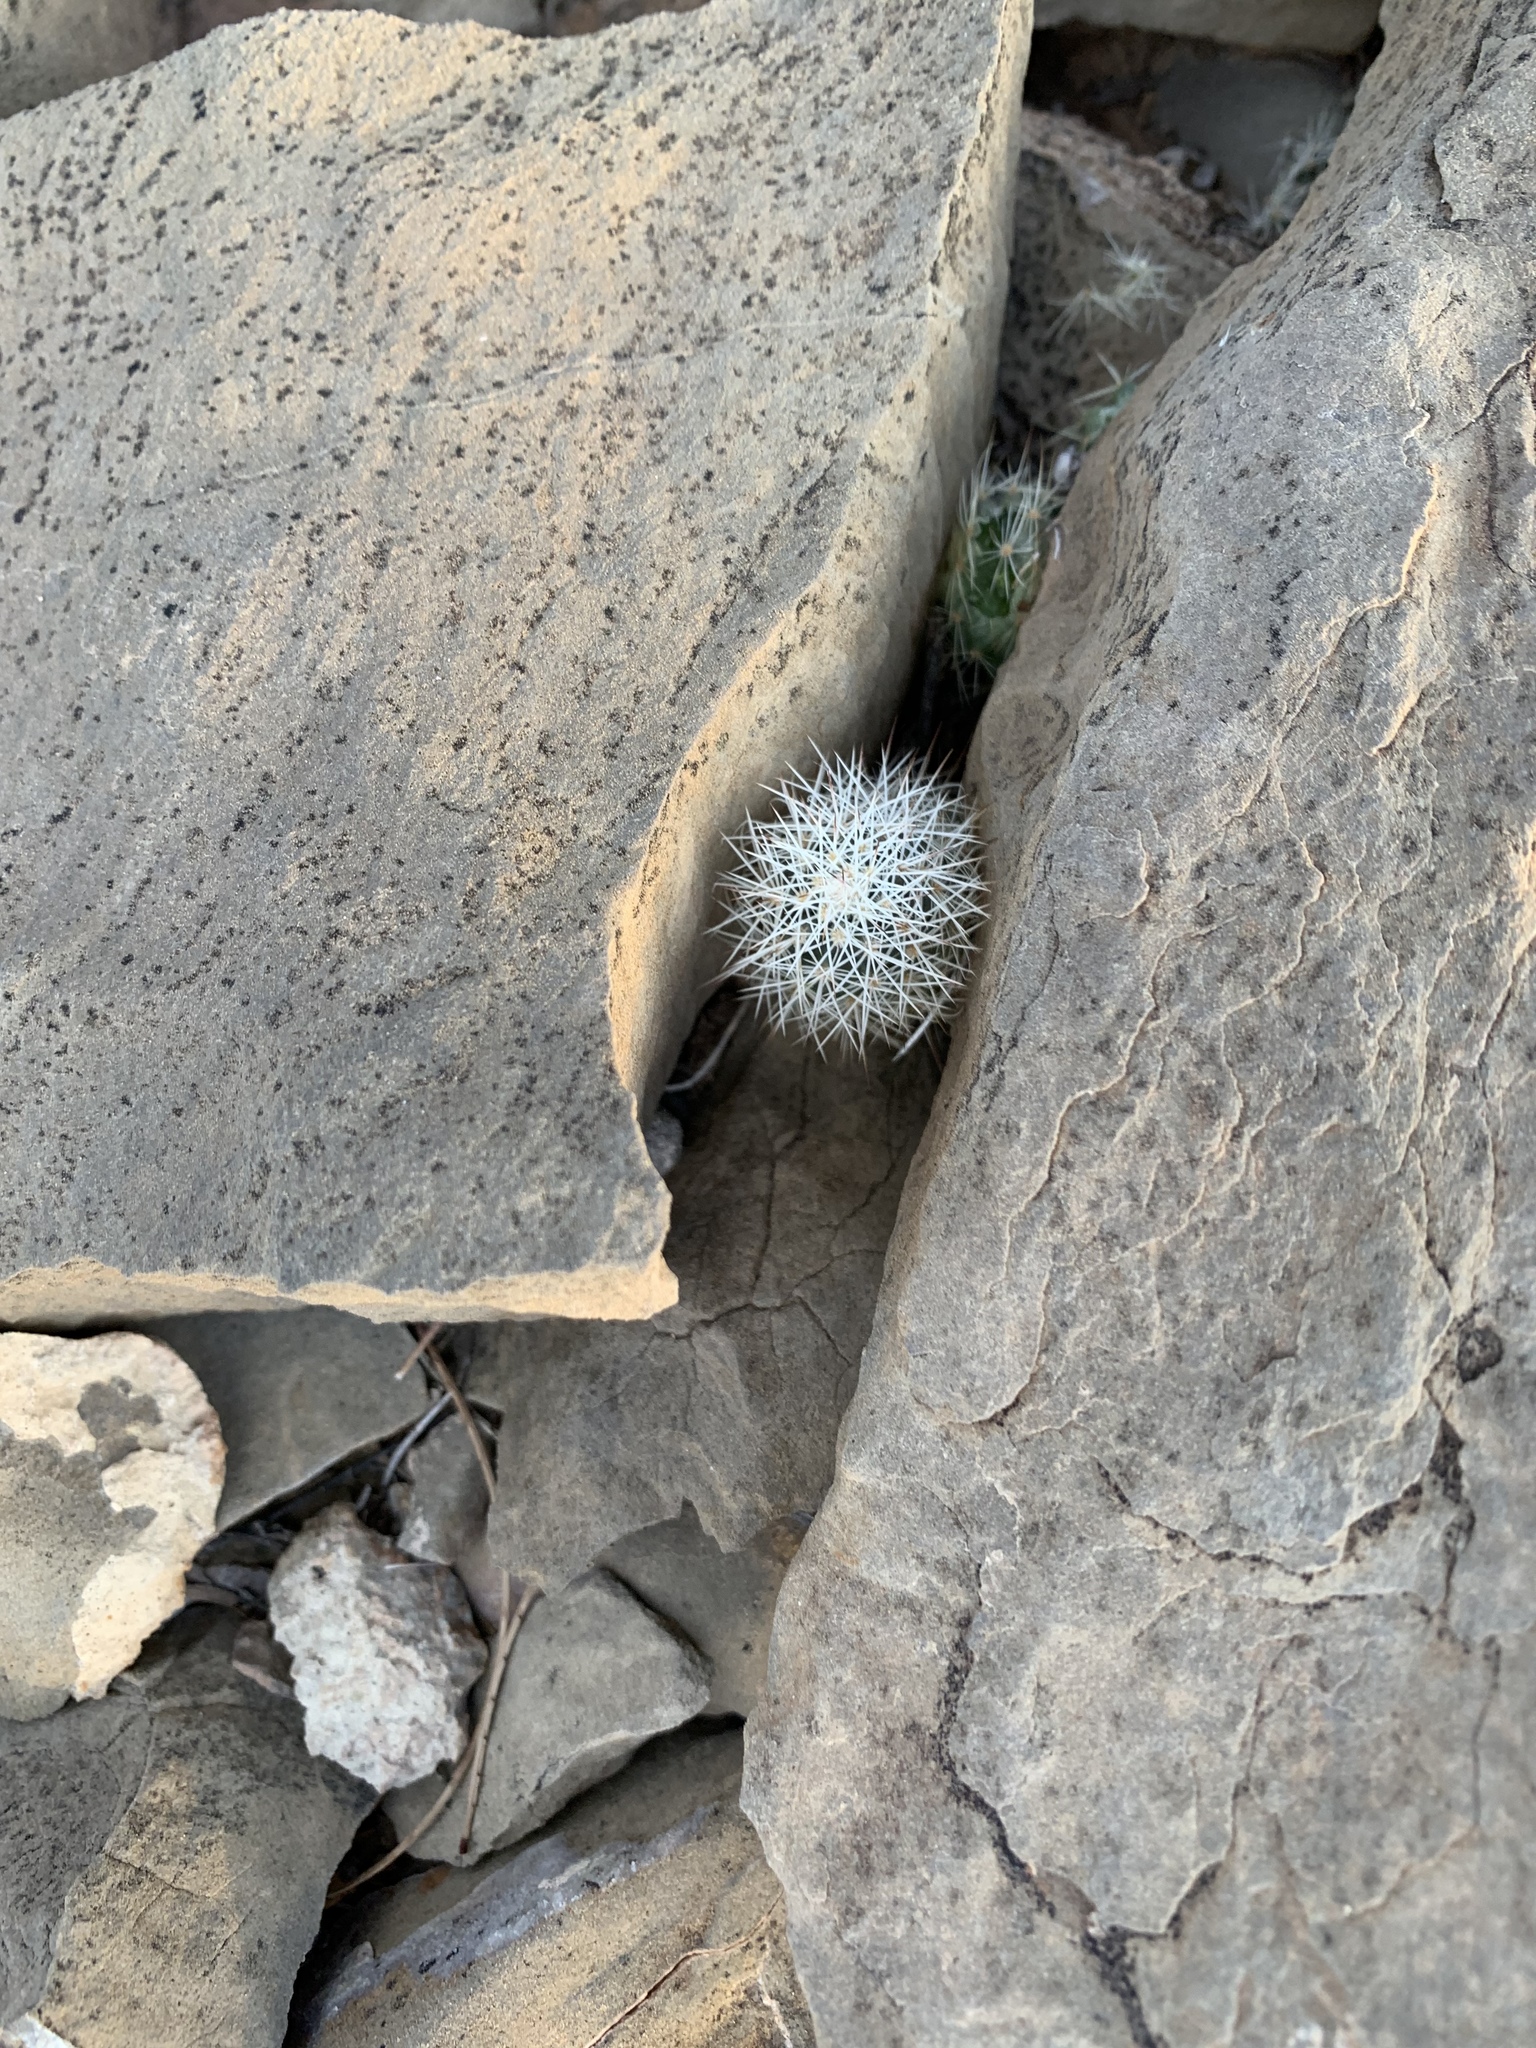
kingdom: Plantae
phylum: Tracheophyta
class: Magnoliopsida
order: Caryophyllales
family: Cactaceae
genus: Echinocereus
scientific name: Echinocereus dasyacanthus
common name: Spiny hedgehog cactus
